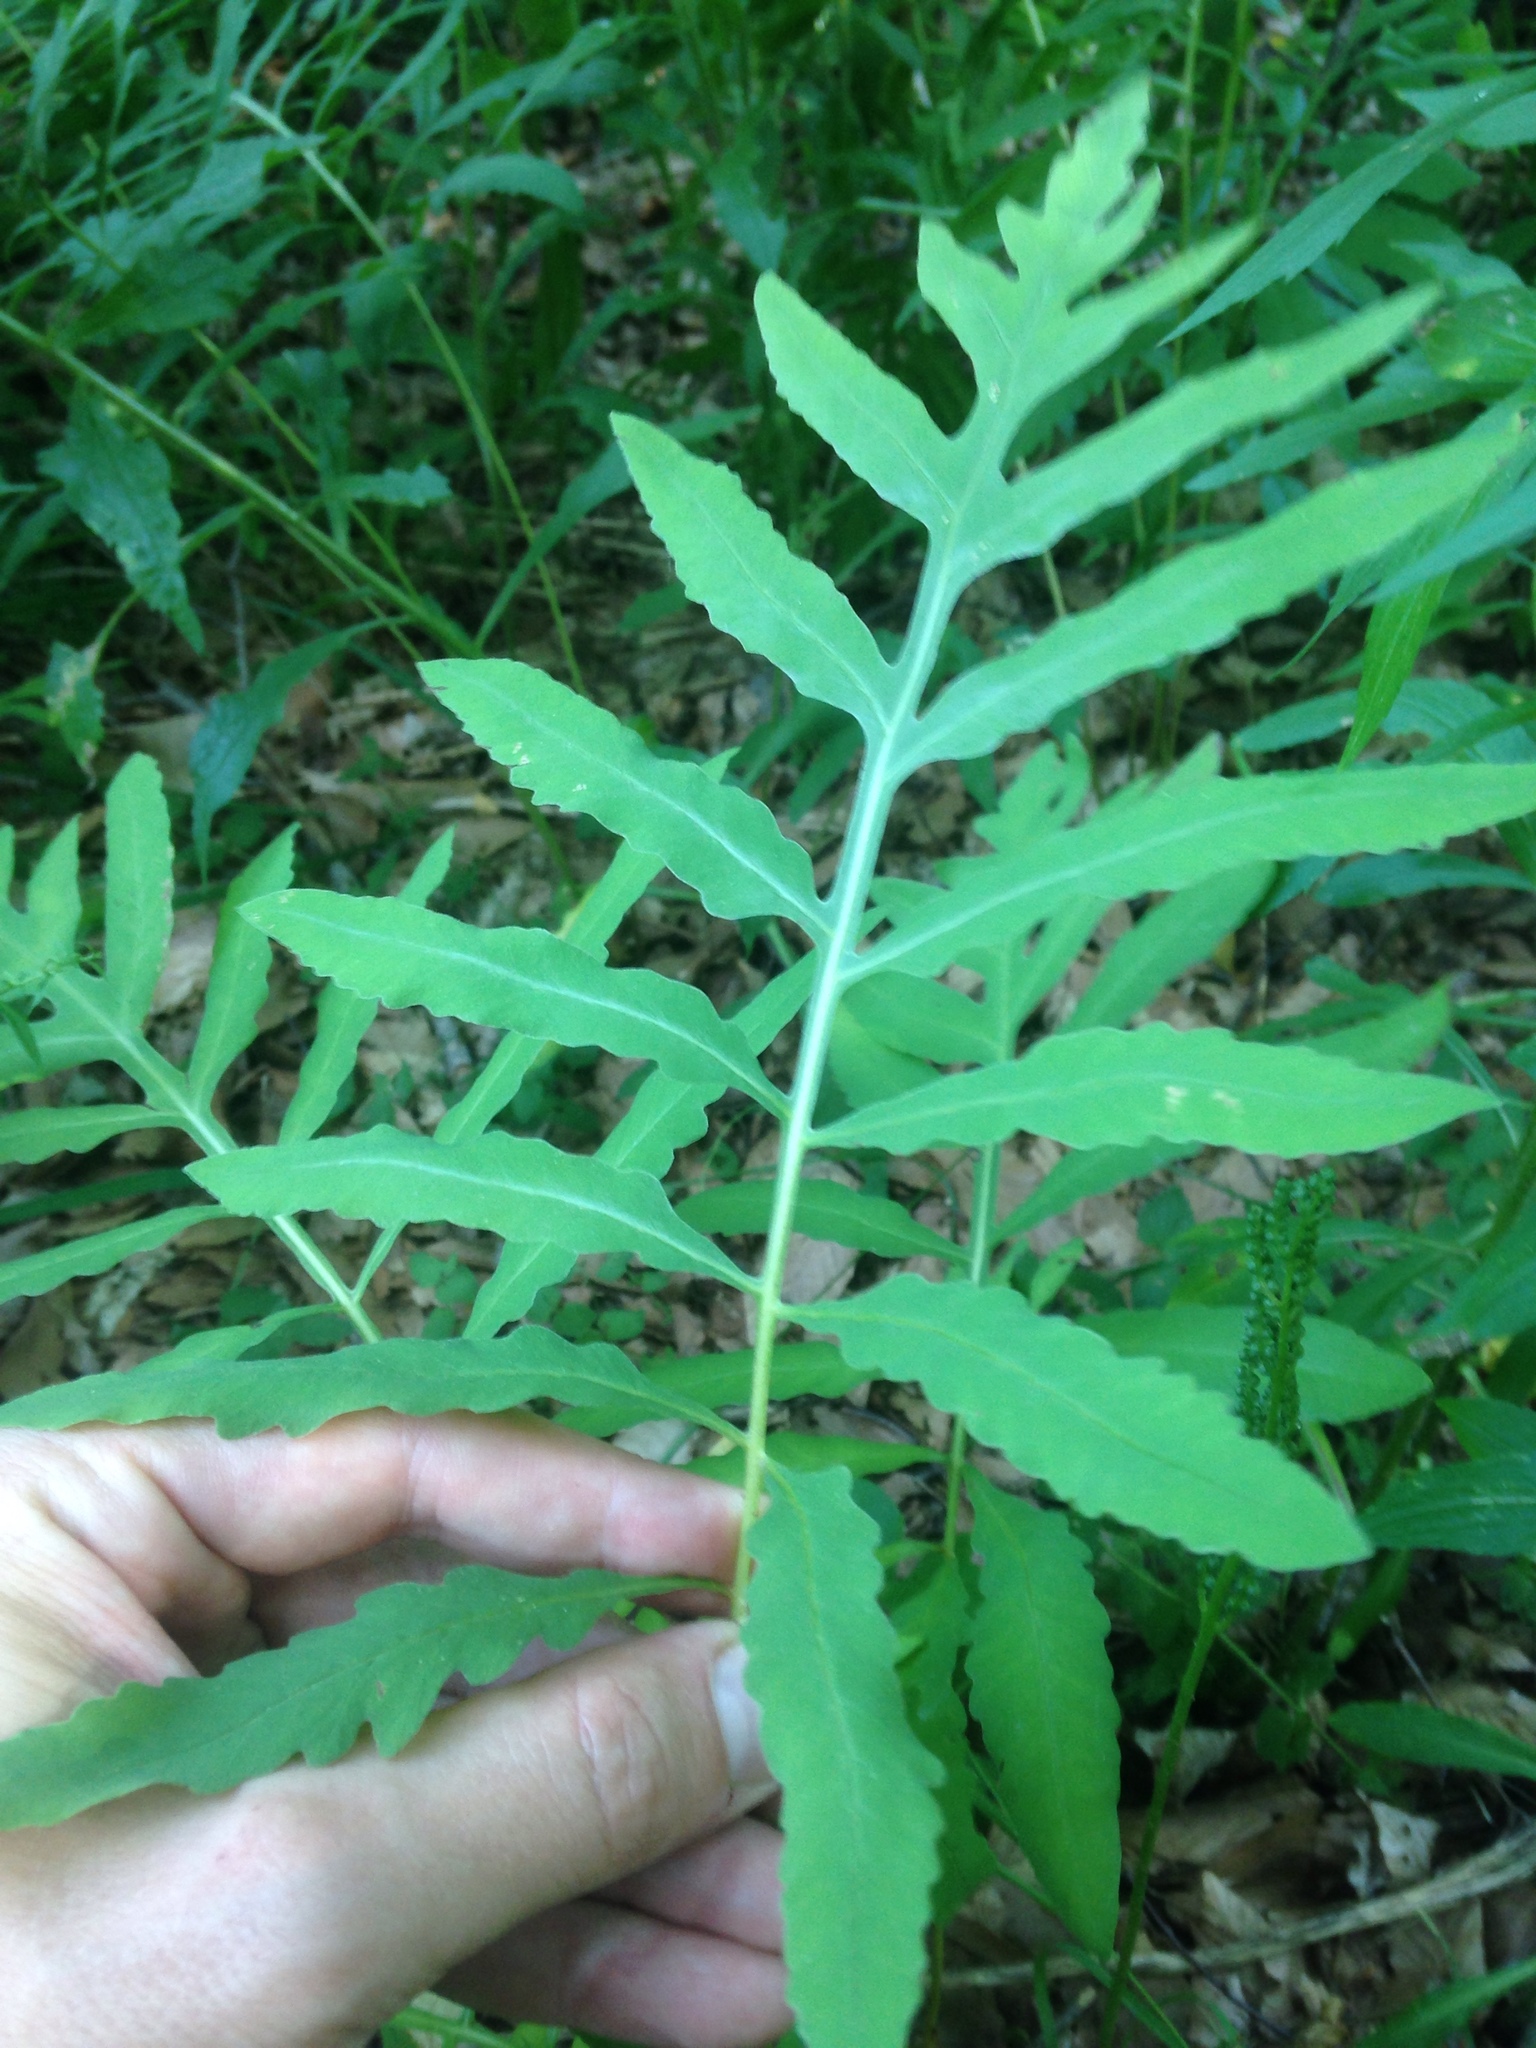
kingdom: Plantae
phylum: Tracheophyta
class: Polypodiopsida
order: Polypodiales
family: Onocleaceae
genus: Onoclea
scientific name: Onoclea sensibilis
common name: Sensitive fern
